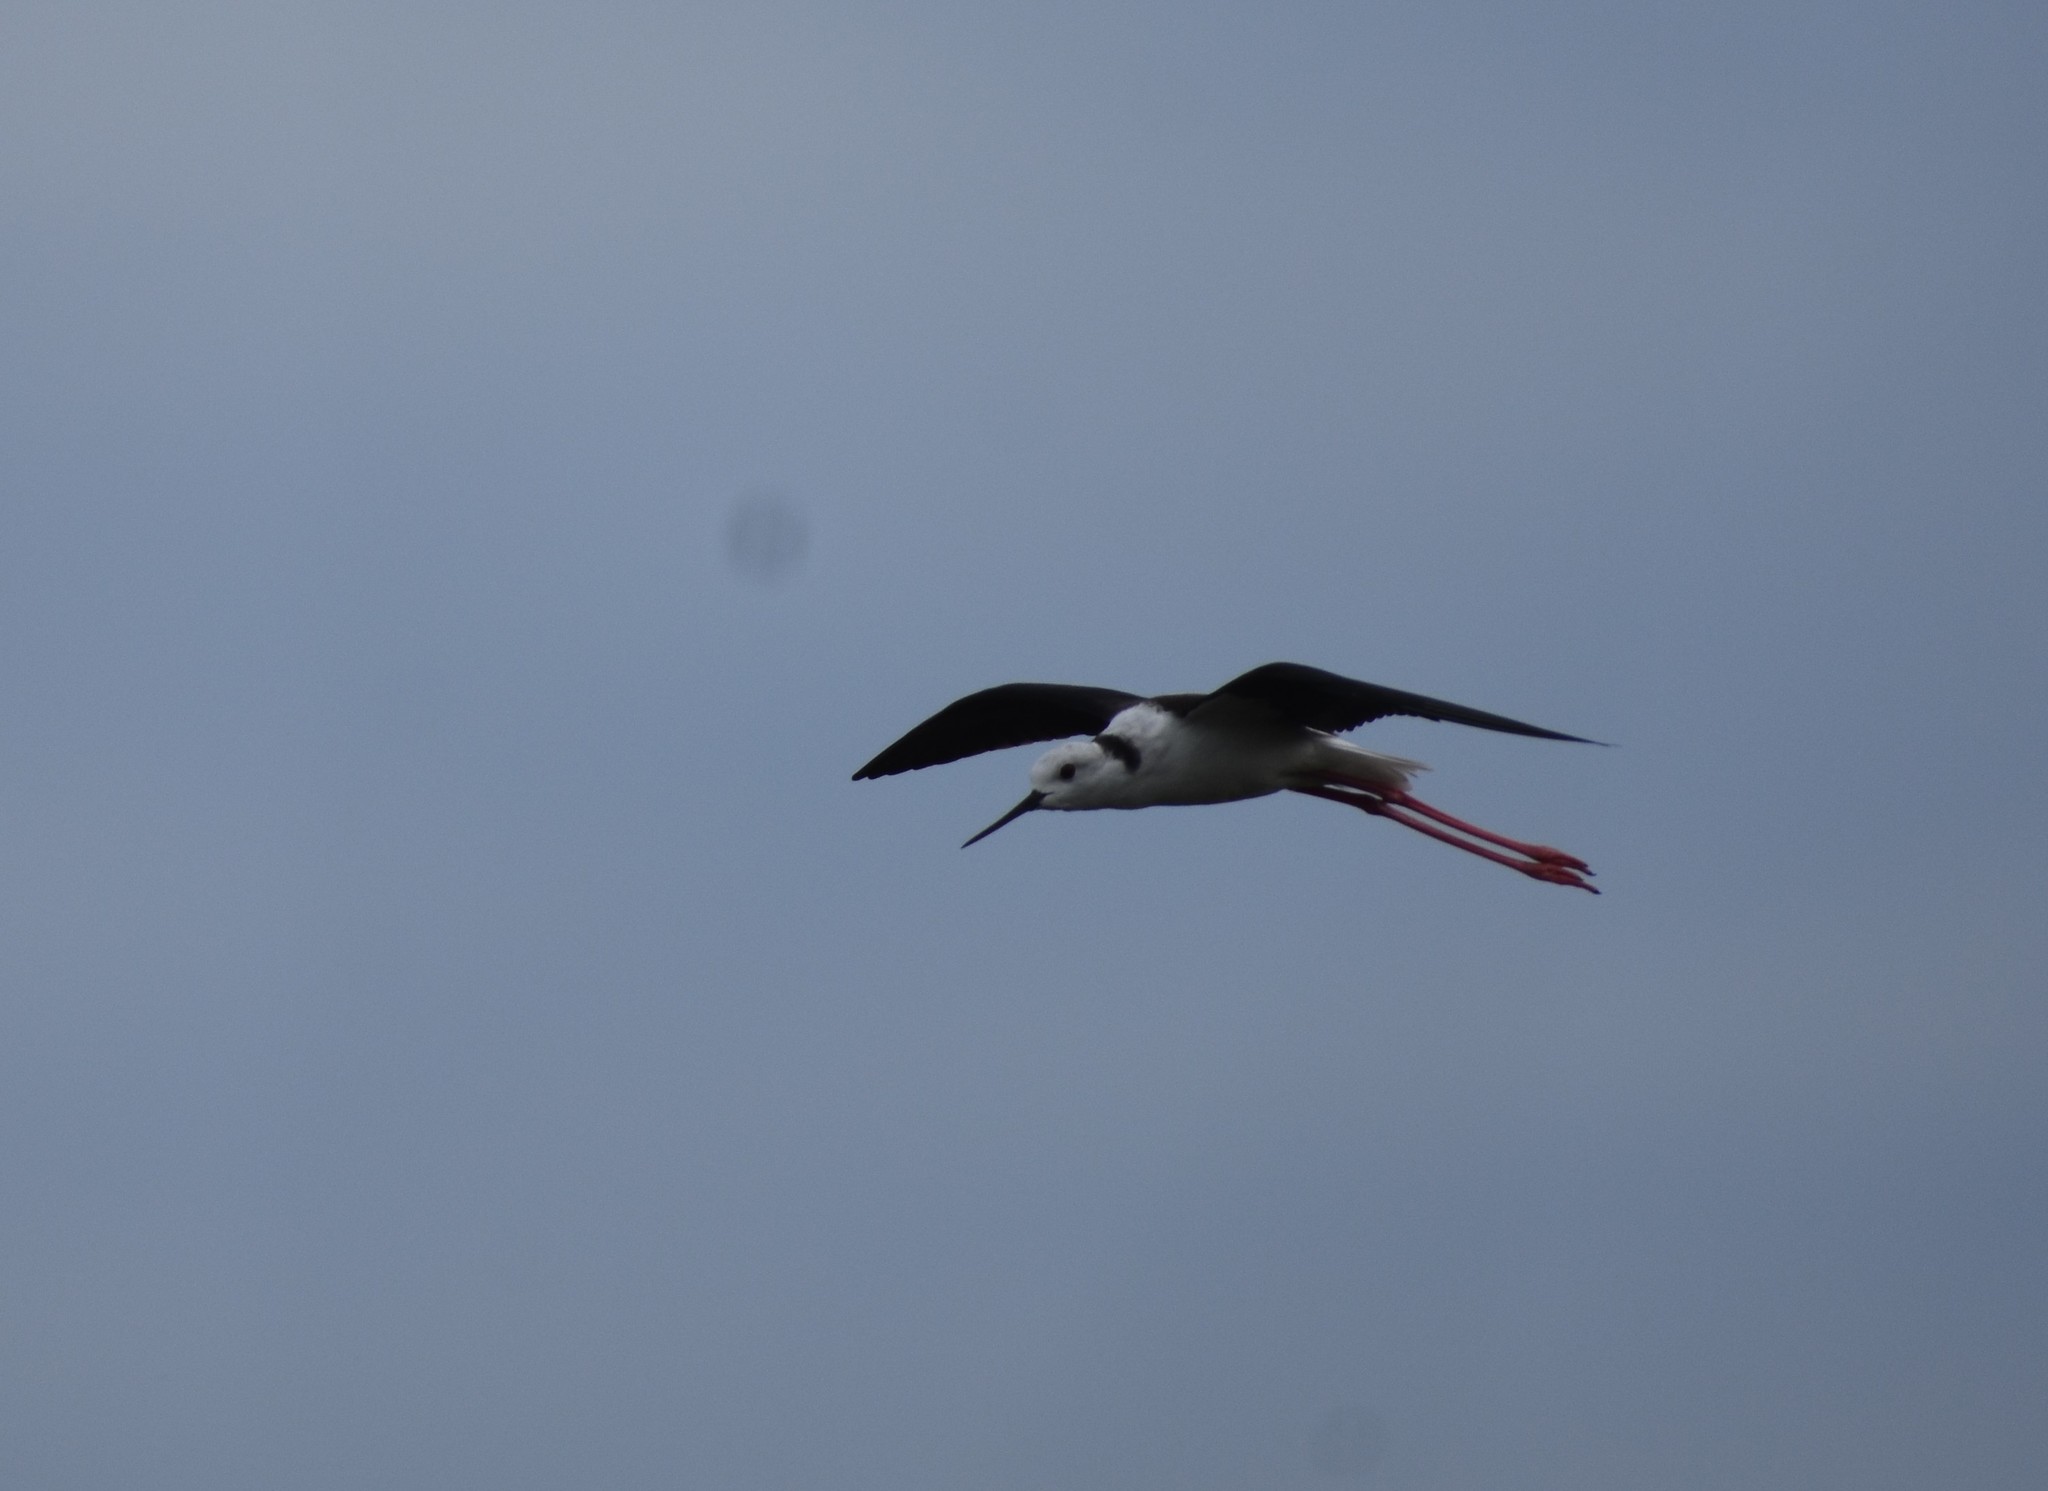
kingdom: Animalia
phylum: Chordata
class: Aves
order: Charadriiformes
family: Recurvirostridae
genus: Himantopus
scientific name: Himantopus himantopus
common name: Black-winged stilt
